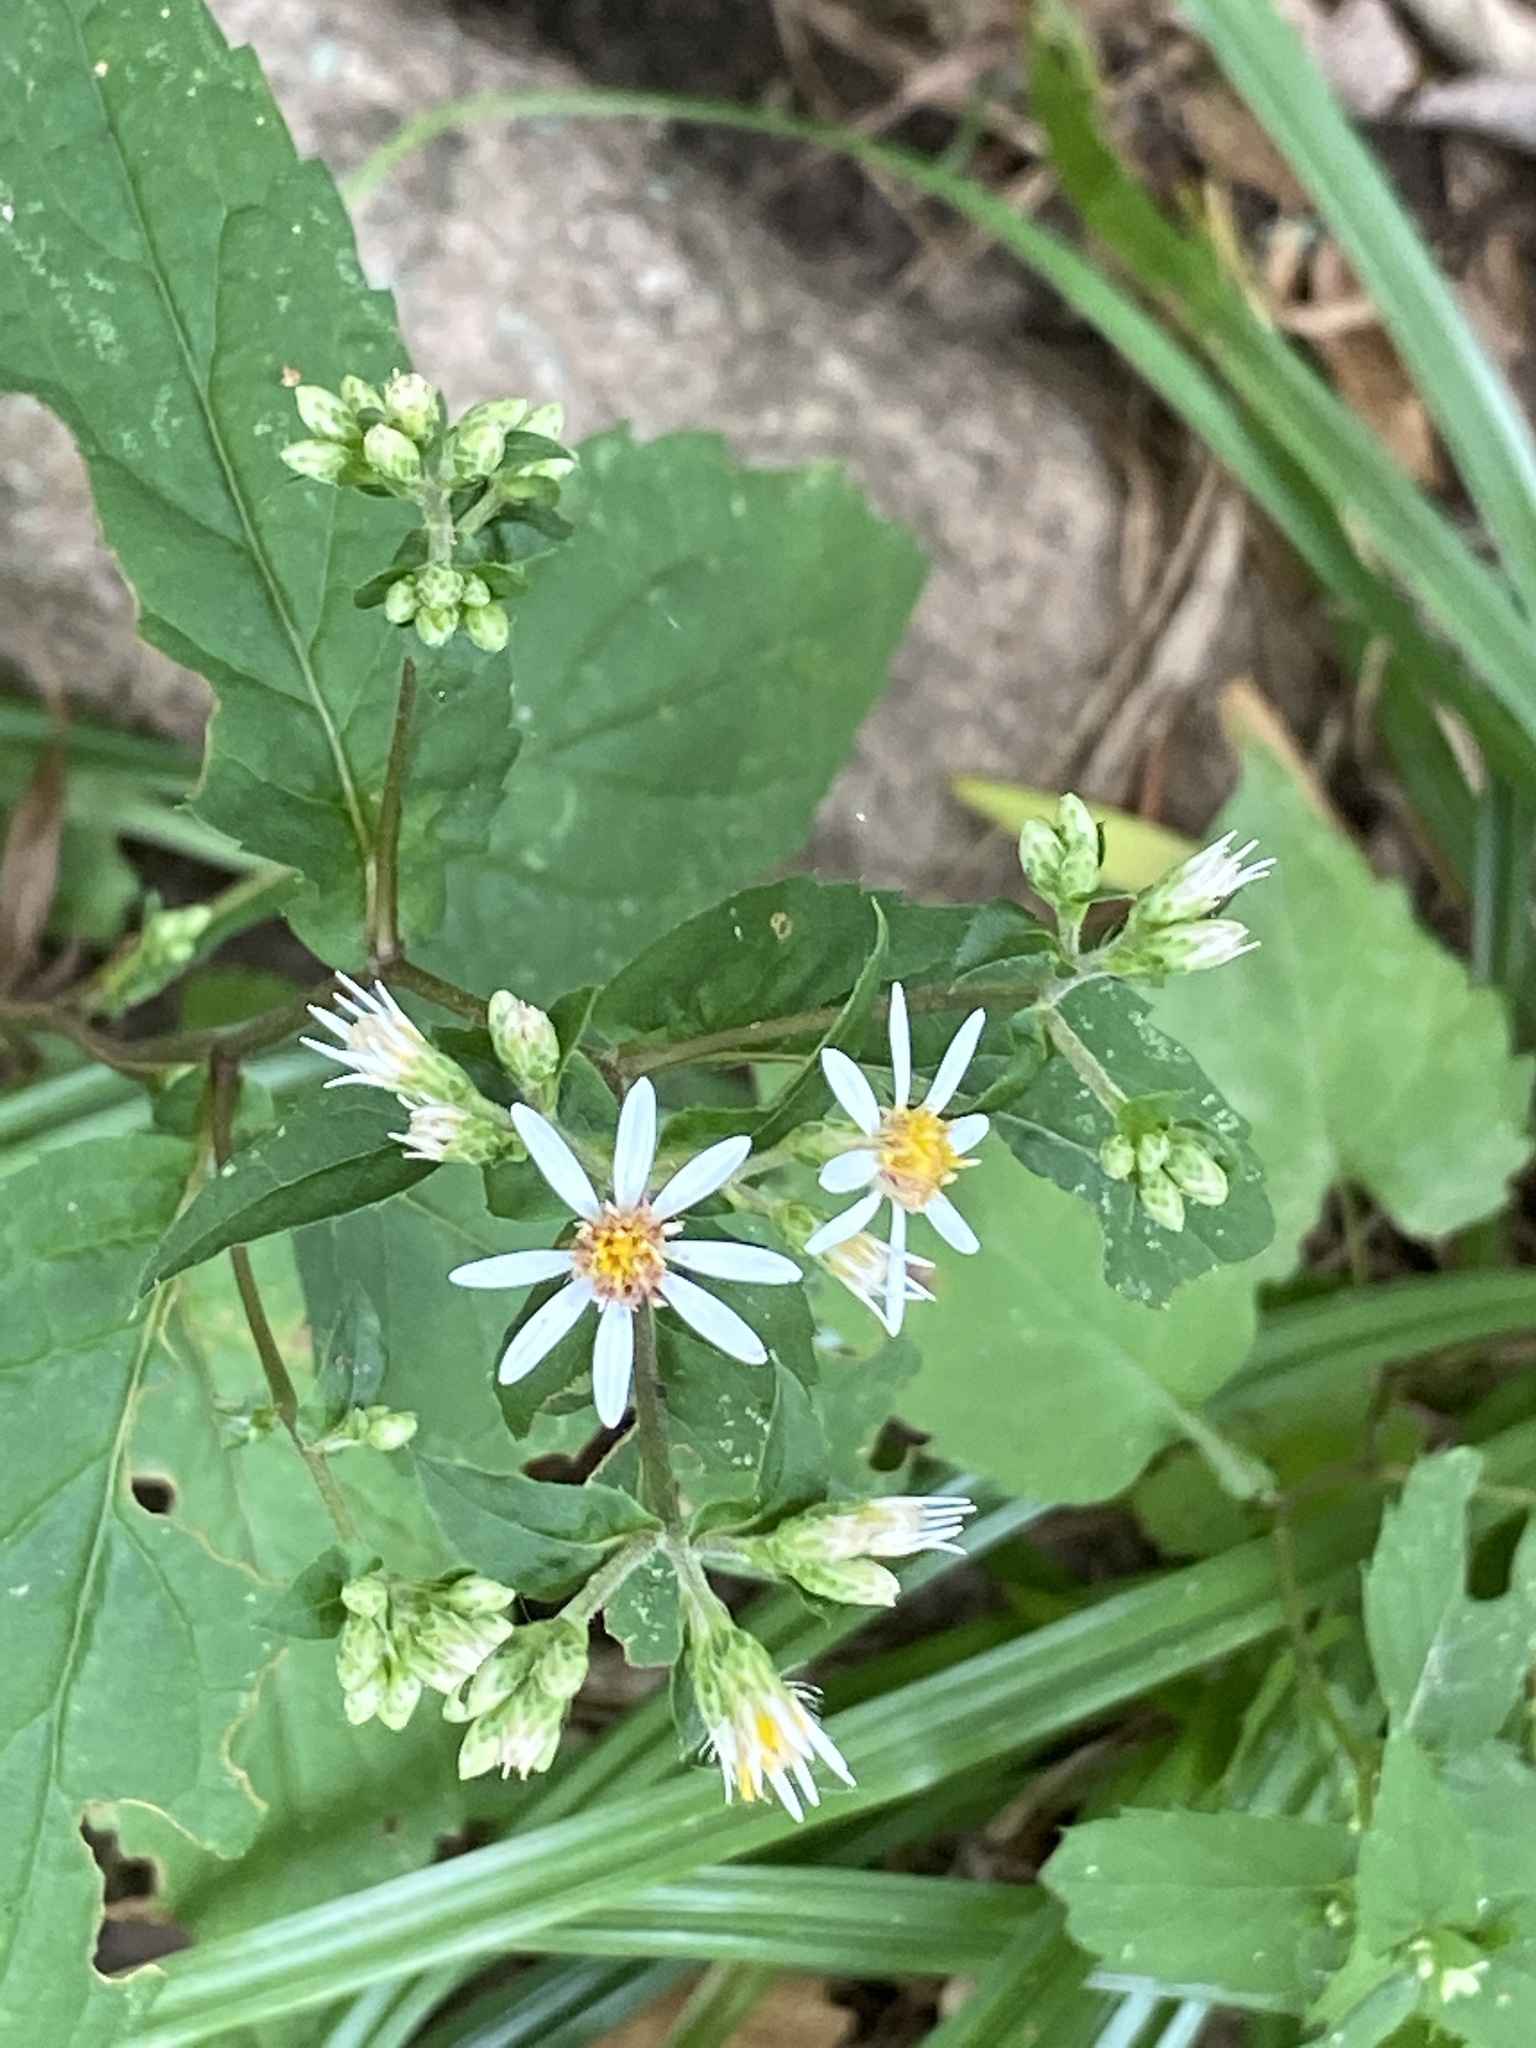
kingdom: Plantae
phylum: Tracheophyta
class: Magnoliopsida
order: Asterales
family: Asteraceae
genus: Eurybia
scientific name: Eurybia divaricata
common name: White wood aster
